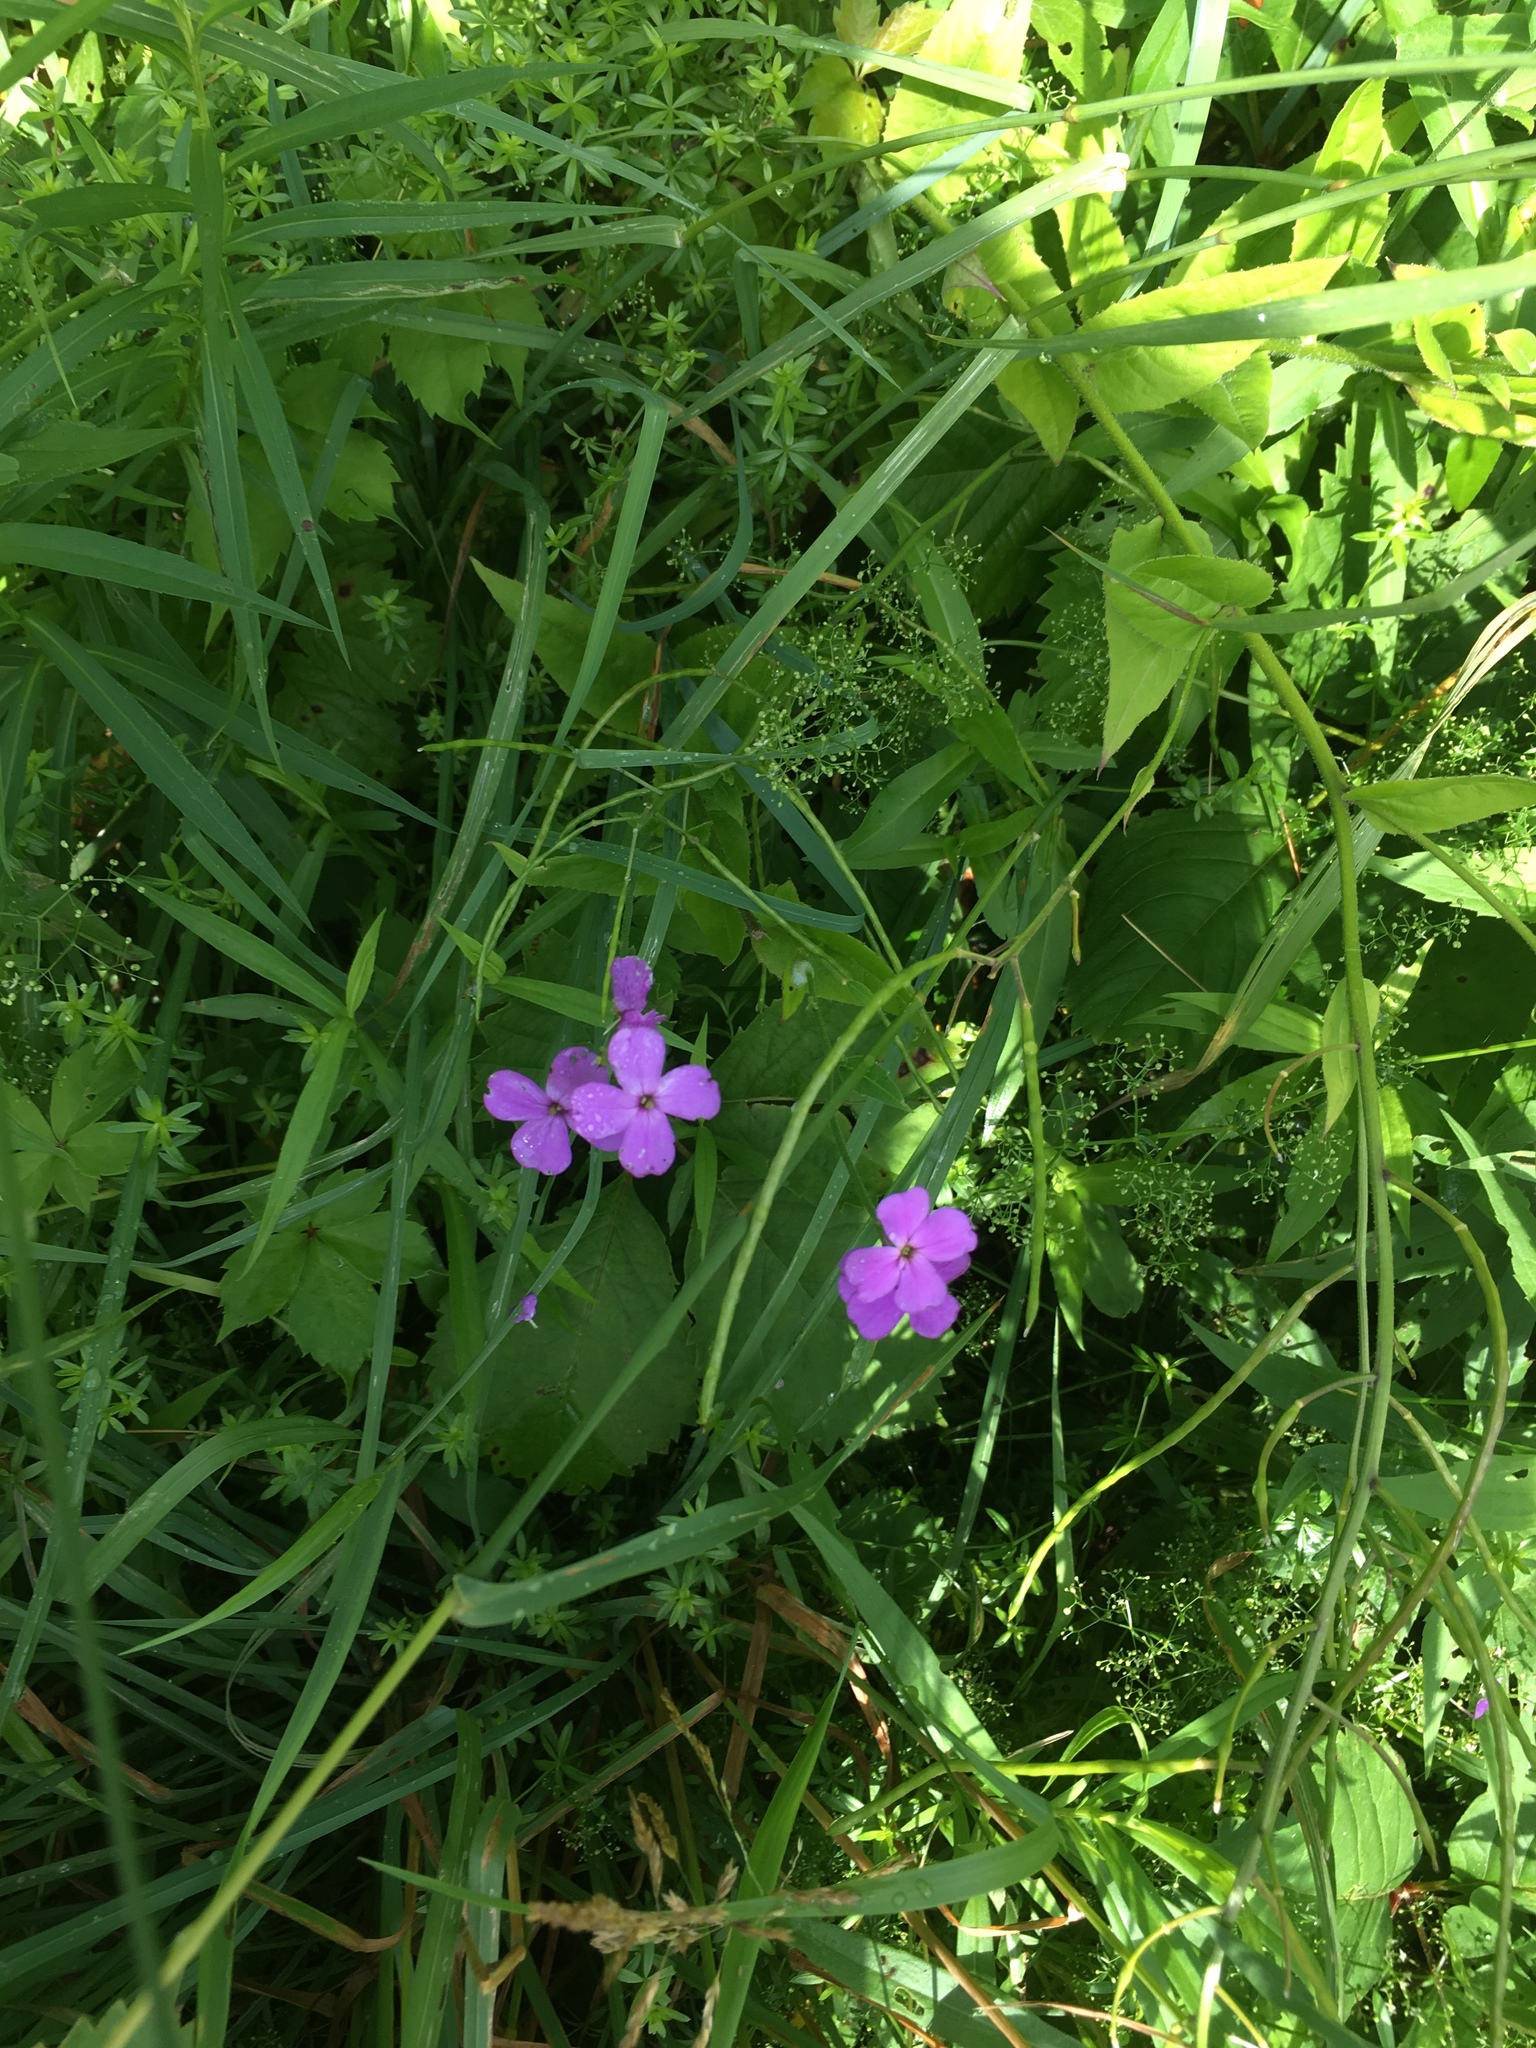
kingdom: Plantae
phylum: Tracheophyta
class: Magnoliopsida
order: Brassicales
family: Brassicaceae
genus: Hesperis
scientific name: Hesperis matronalis
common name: Dame's-violet
